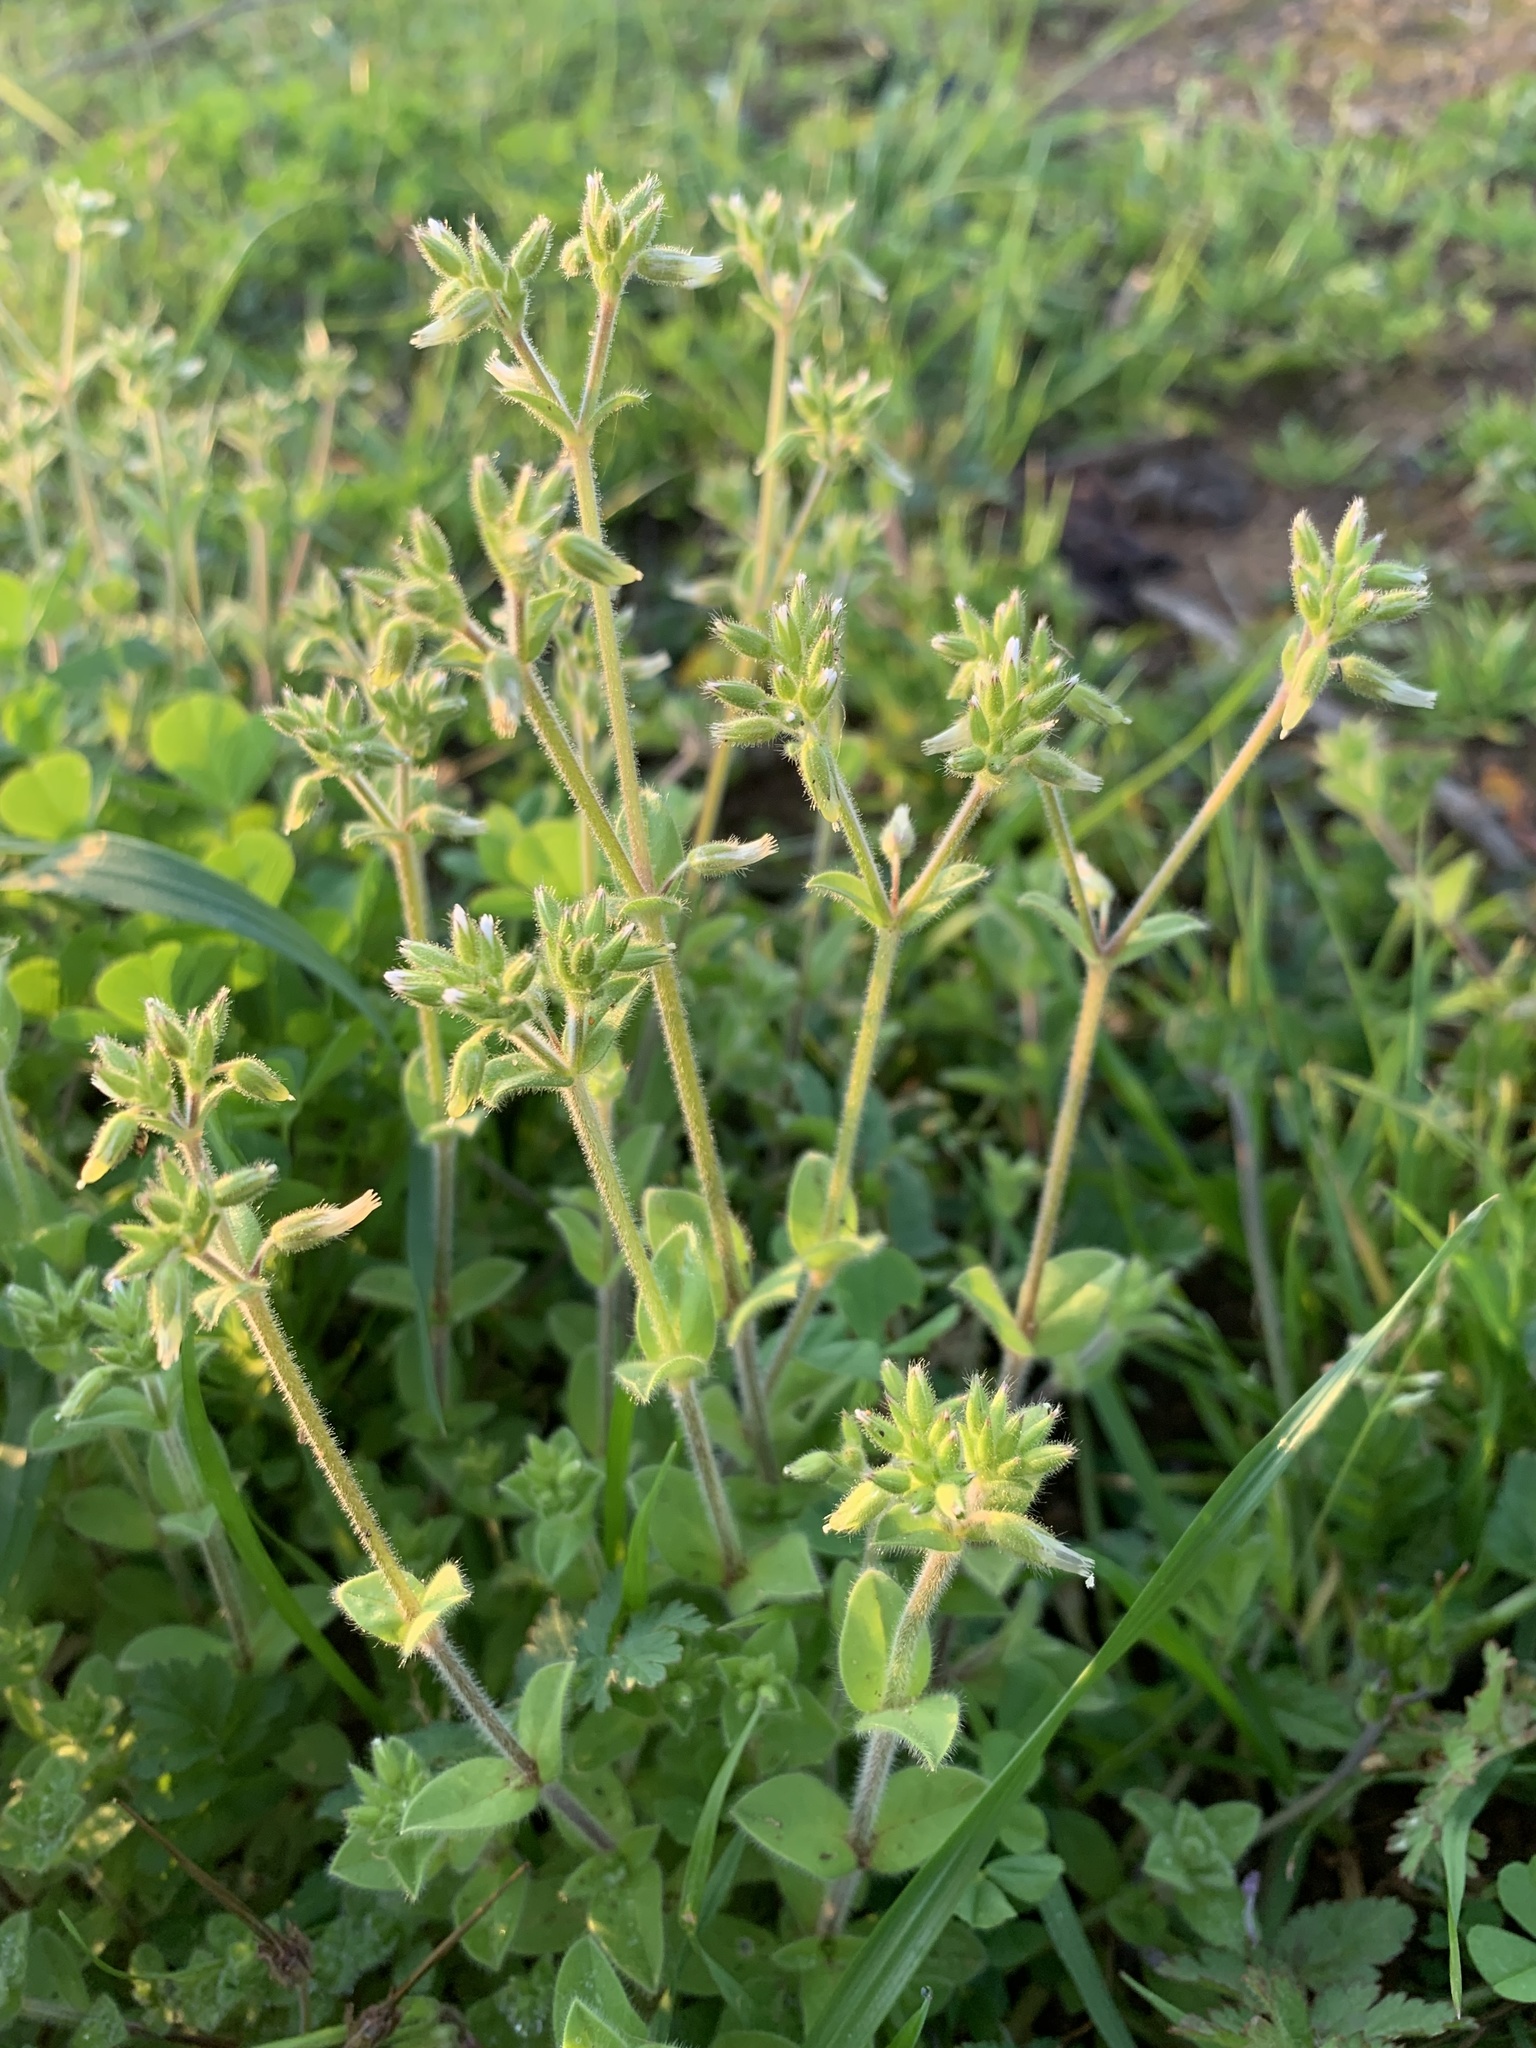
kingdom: Plantae
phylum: Tracheophyta
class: Magnoliopsida
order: Caryophyllales
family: Caryophyllaceae
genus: Cerastium
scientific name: Cerastium glomeratum
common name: Sticky chickweed
